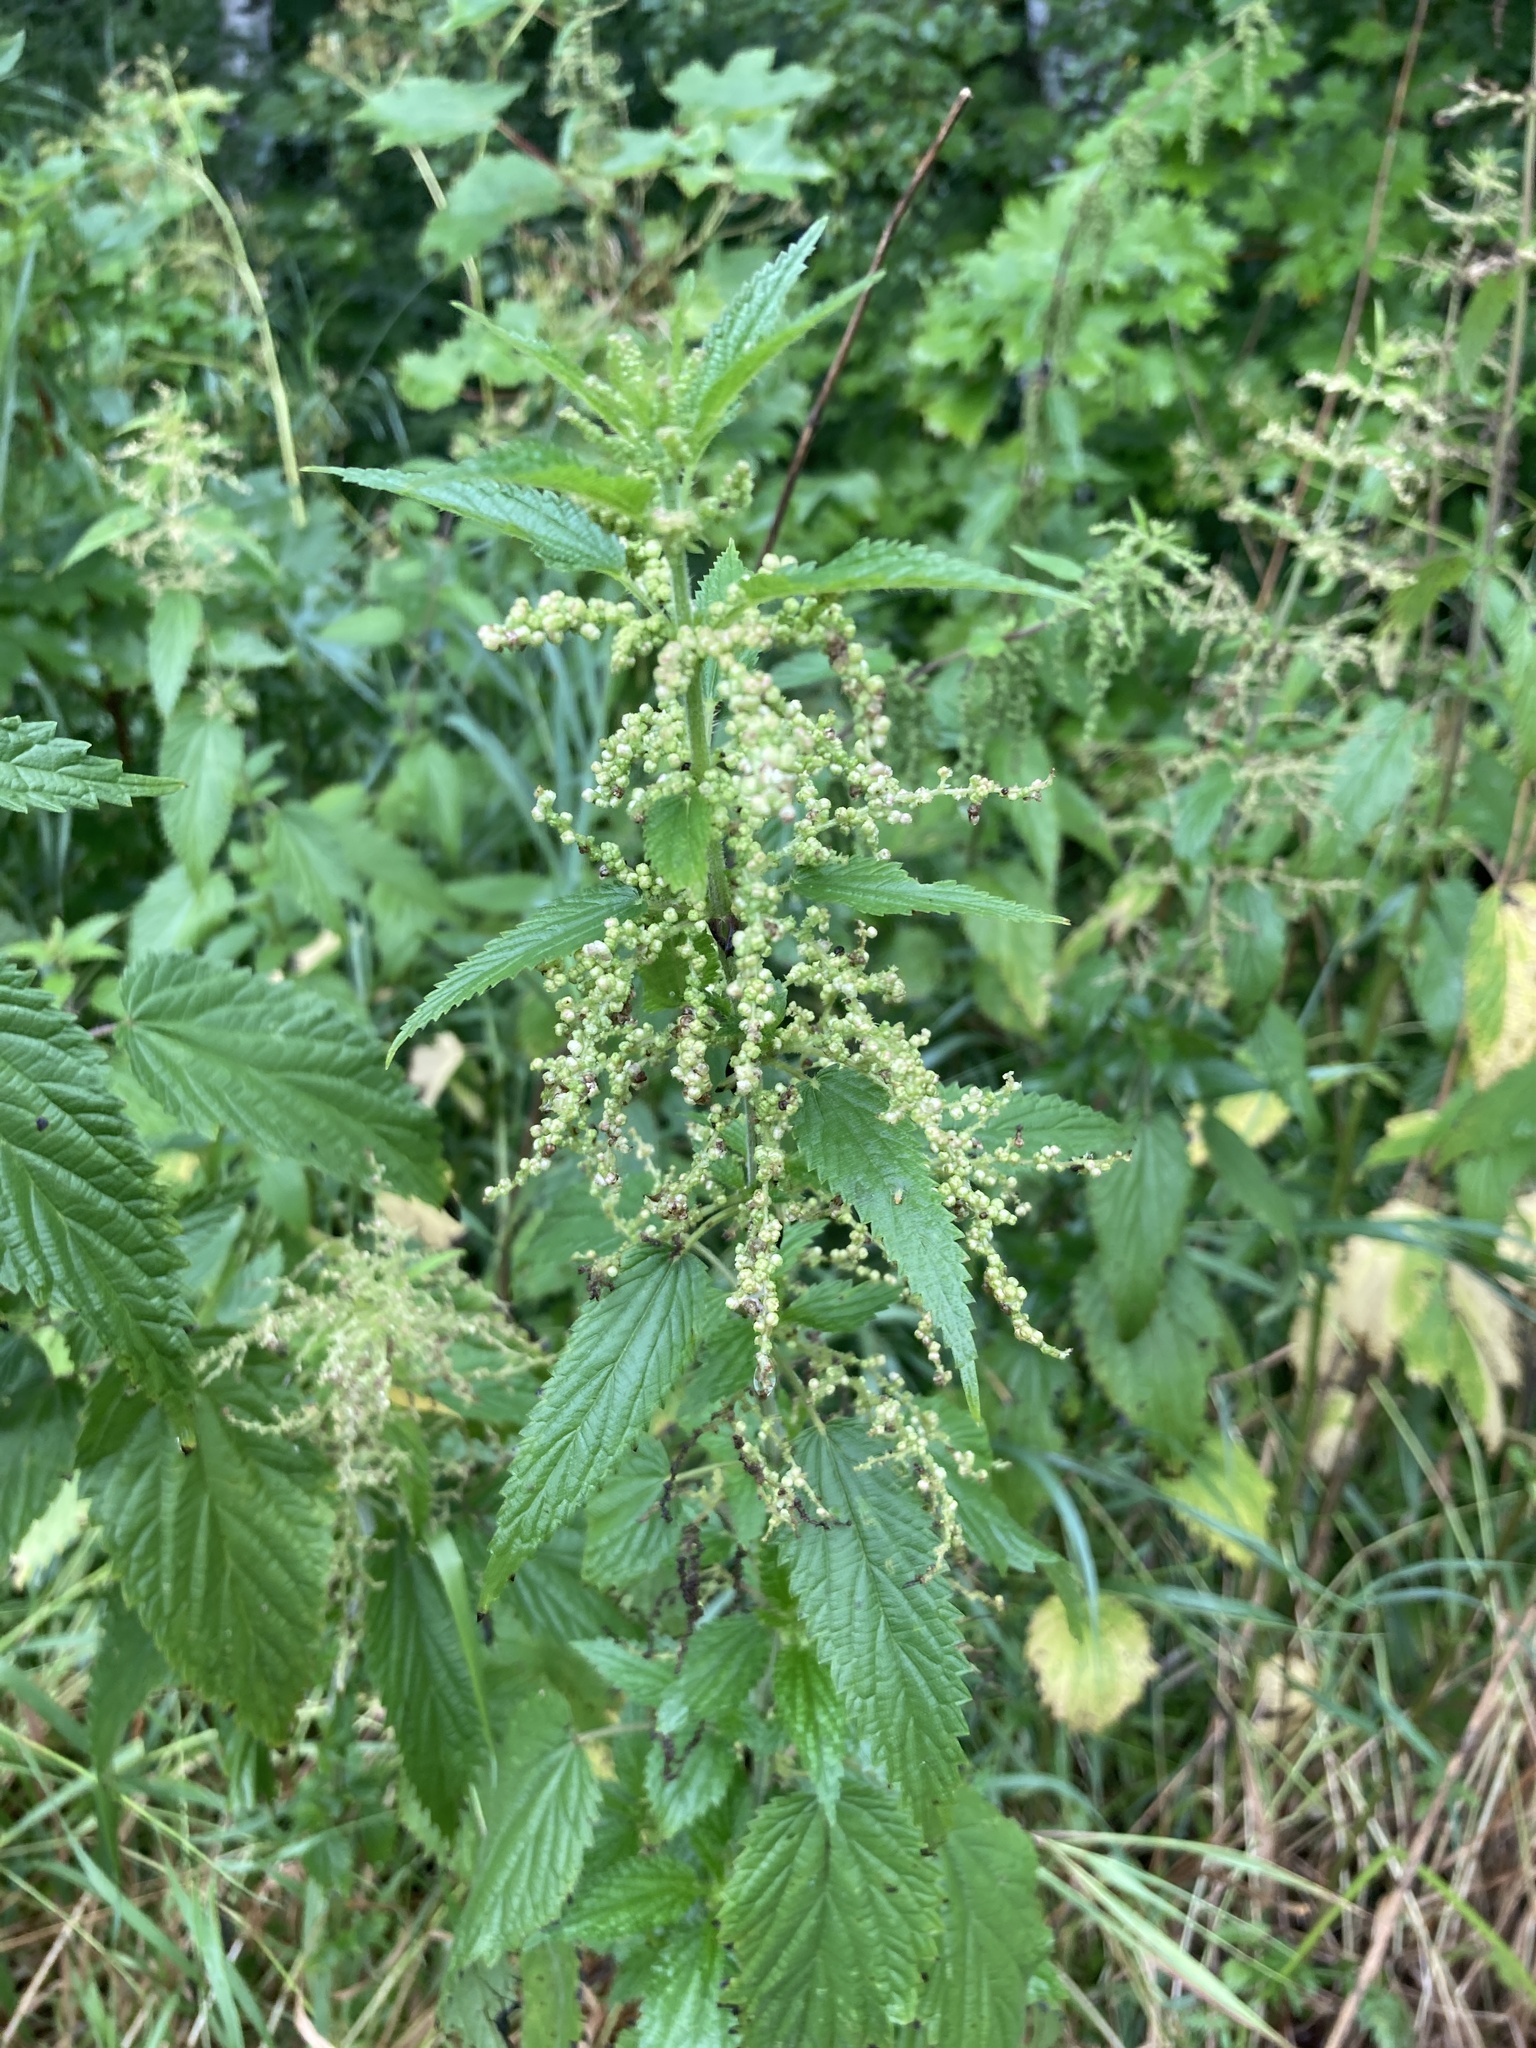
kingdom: Plantae
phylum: Tracheophyta
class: Magnoliopsida
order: Rosales
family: Urticaceae
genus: Urtica
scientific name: Urtica dioica
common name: Common nettle
